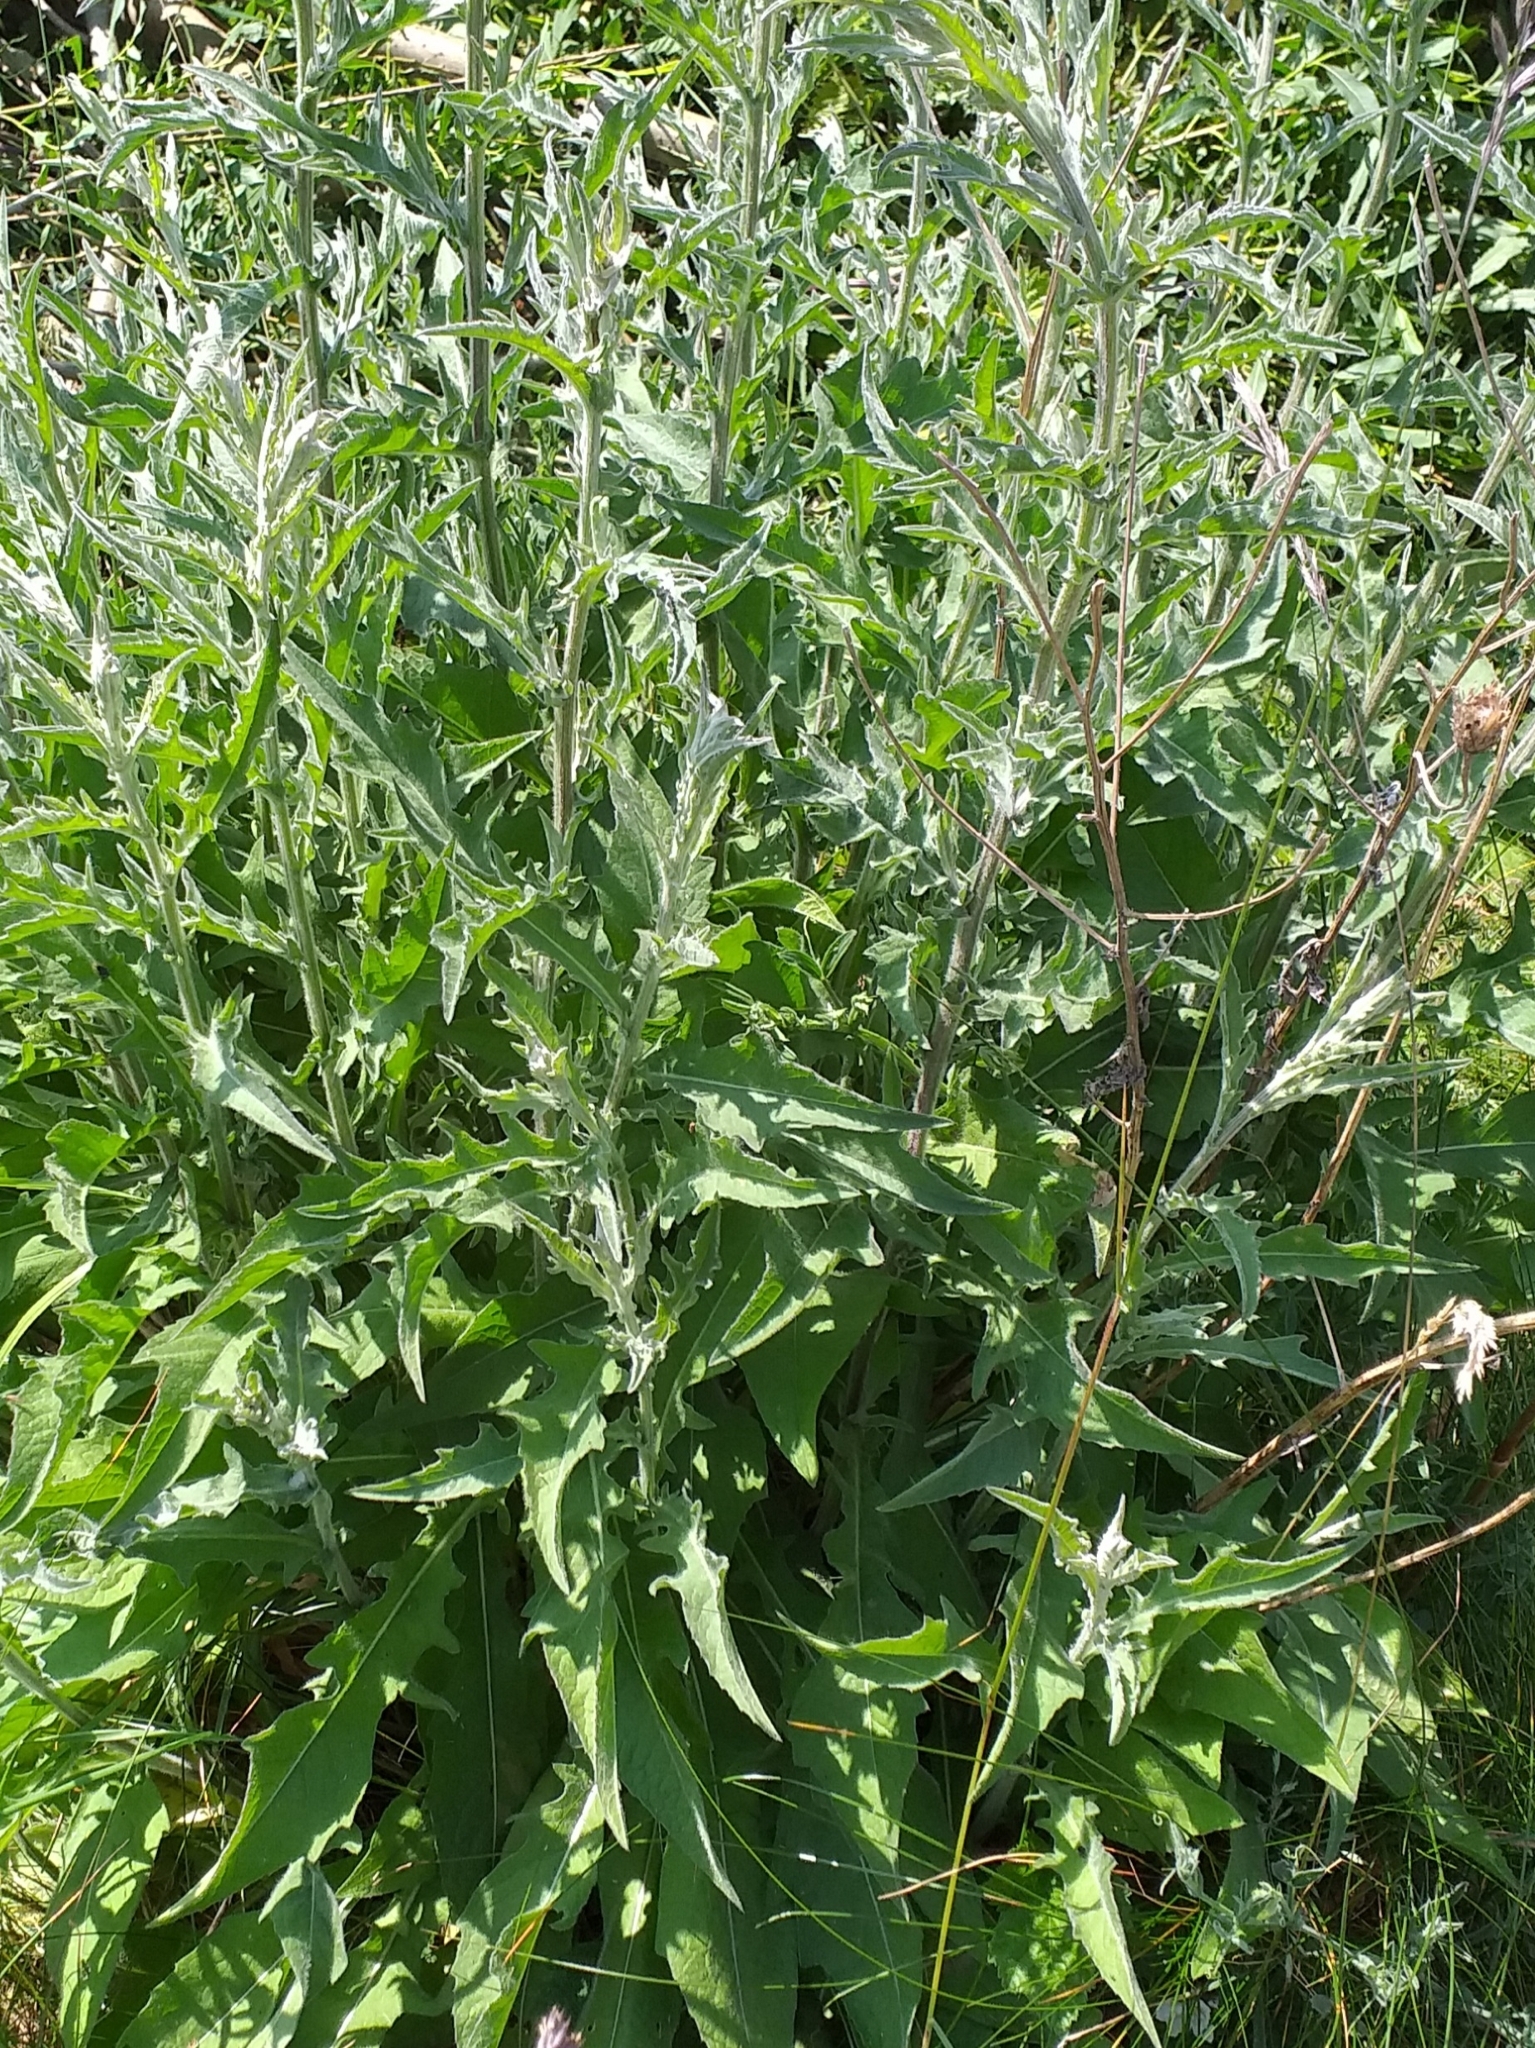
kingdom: Plantae
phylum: Tracheophyta
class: Magnoliopsida
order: Asterales
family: Asteraceae
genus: Centaurea
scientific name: Centaurea nigra
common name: Lesser knapweed
